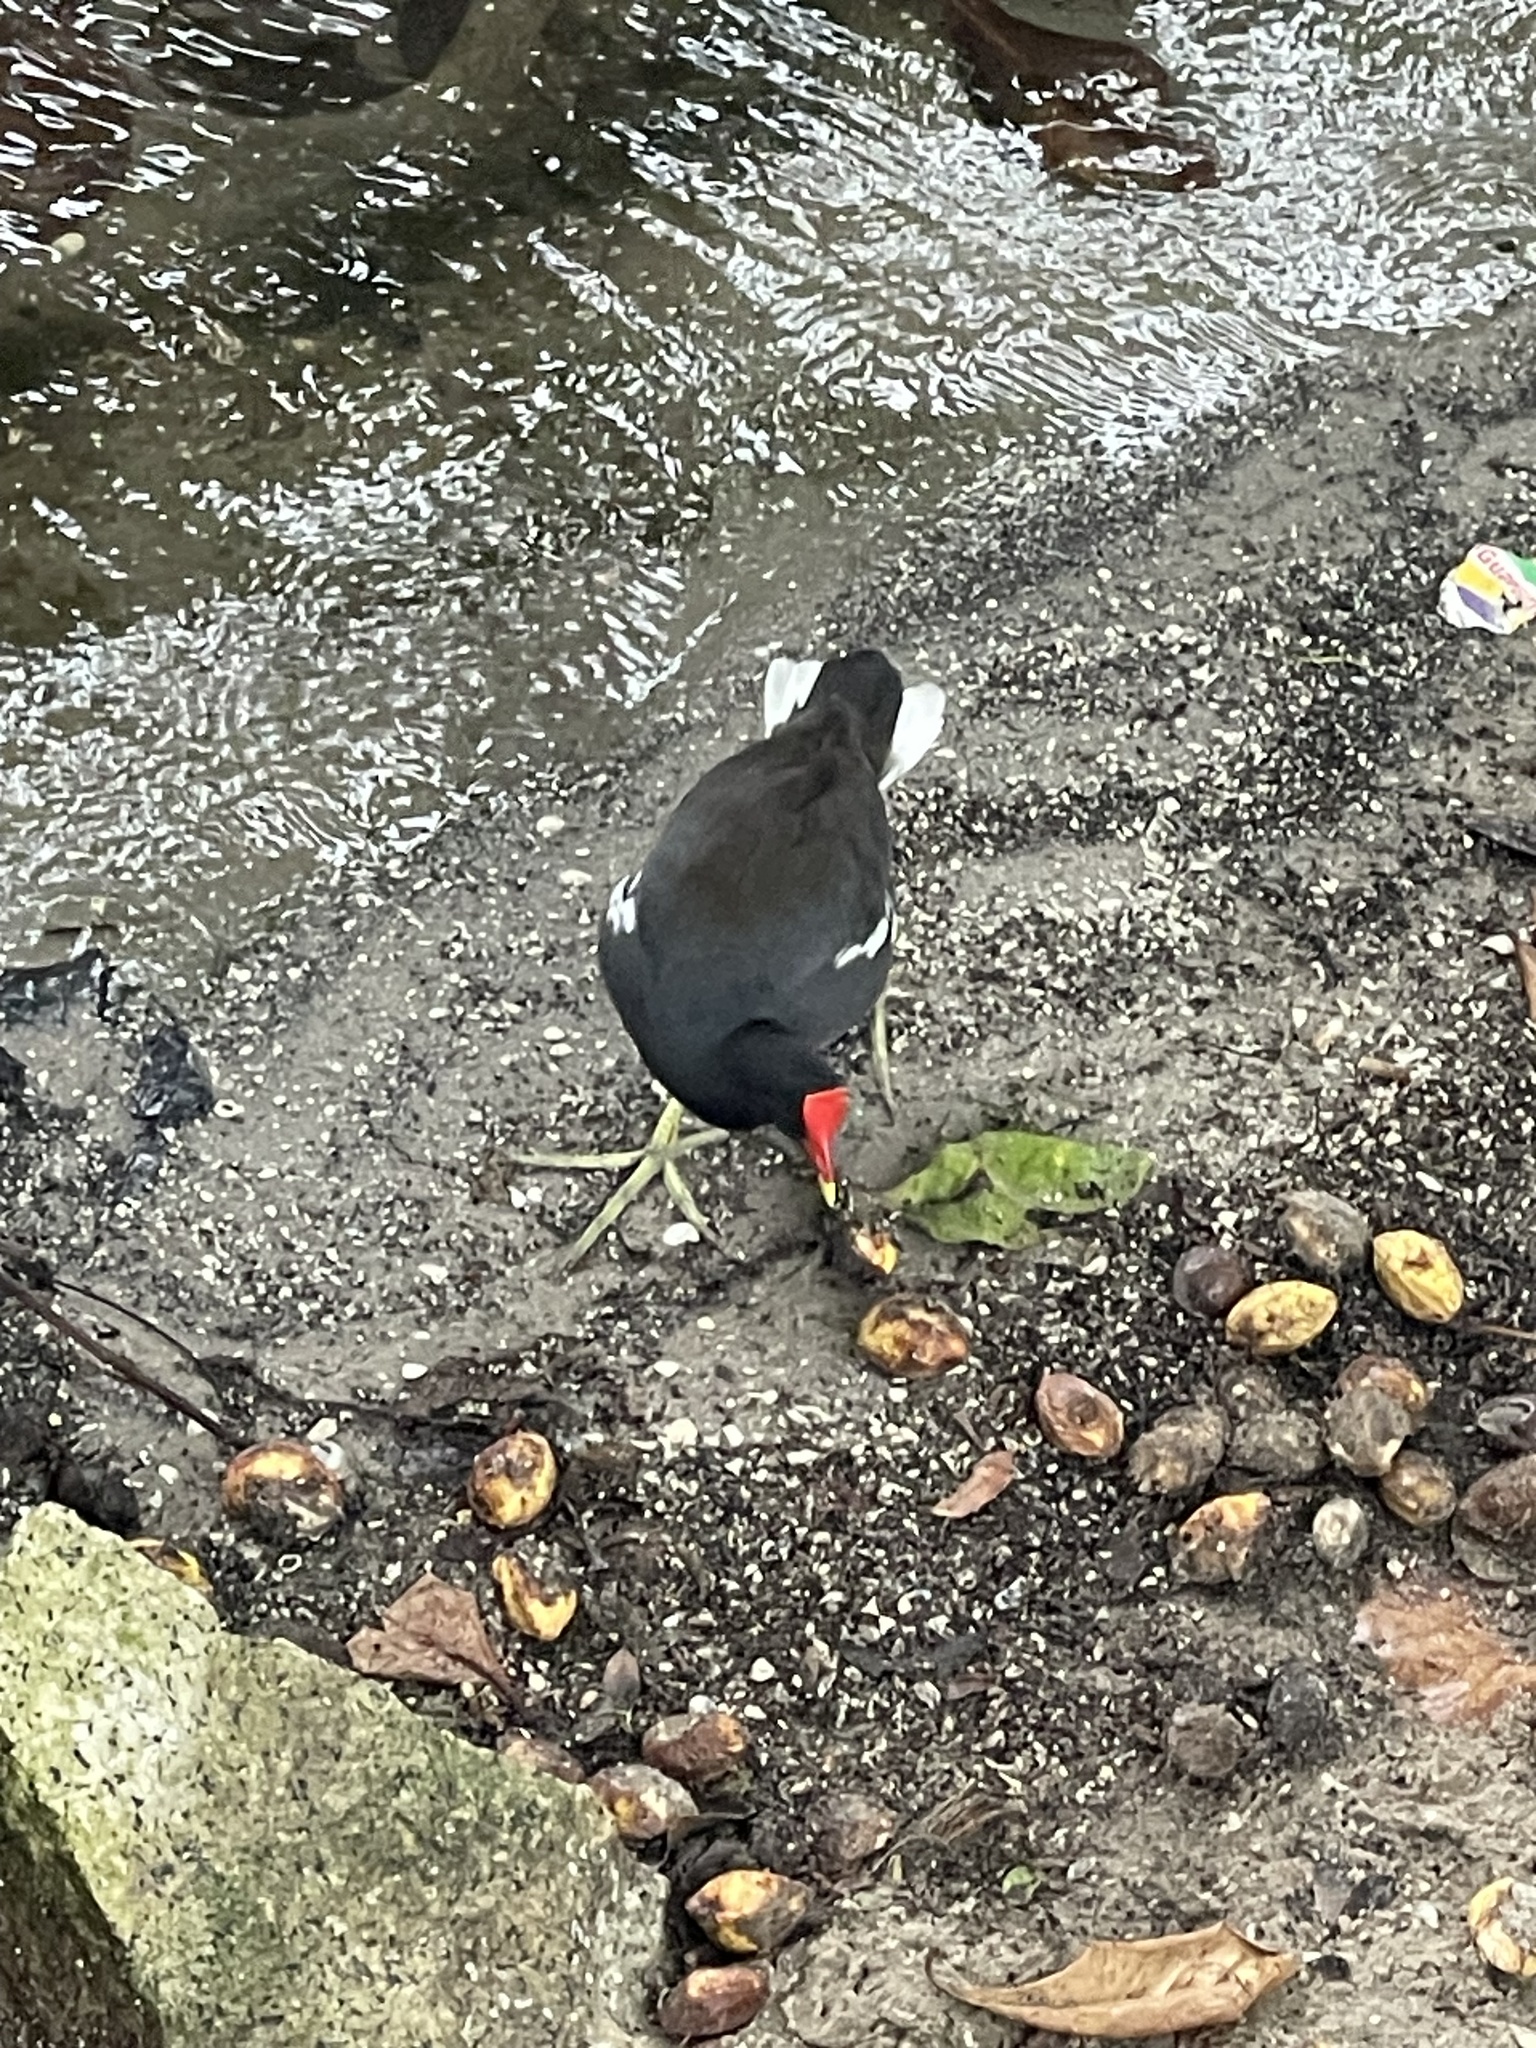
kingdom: Animalia
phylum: Chordata
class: Aves
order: Gruiformes
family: Rallidae
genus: Gallinula
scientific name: Gallinula chloropus
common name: Common moorhen
